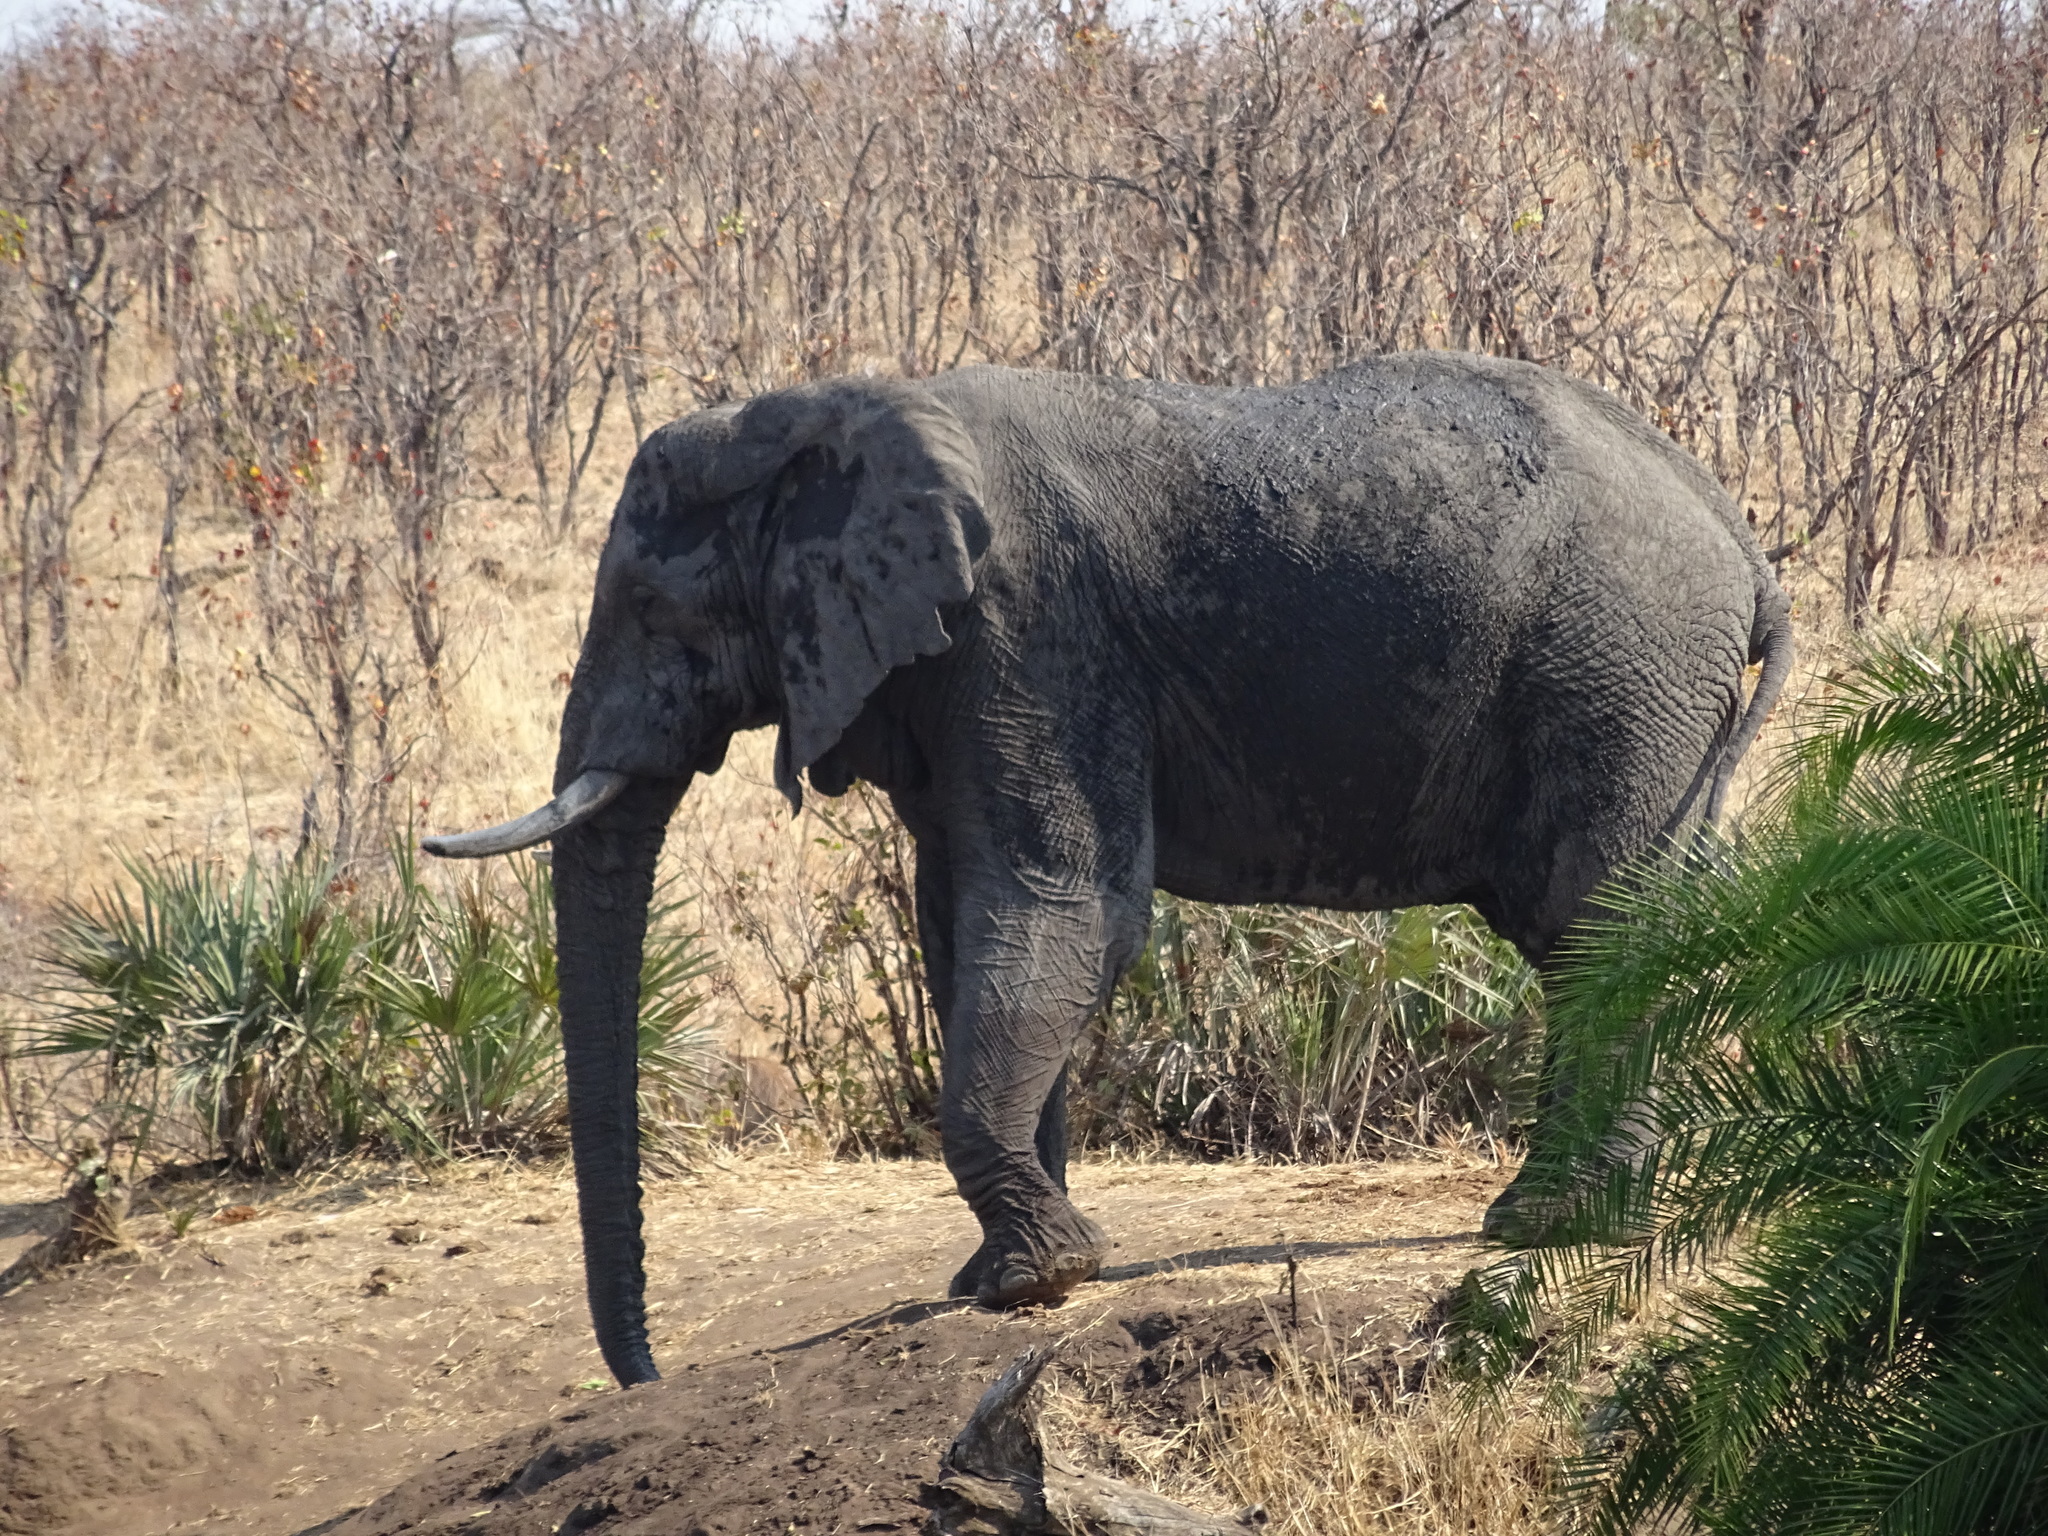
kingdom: Animalia
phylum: Chordata
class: Mammalia
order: Proboscidea
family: Elephantidae
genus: Loxodonta
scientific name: Loxodonta africana
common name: African elephant
